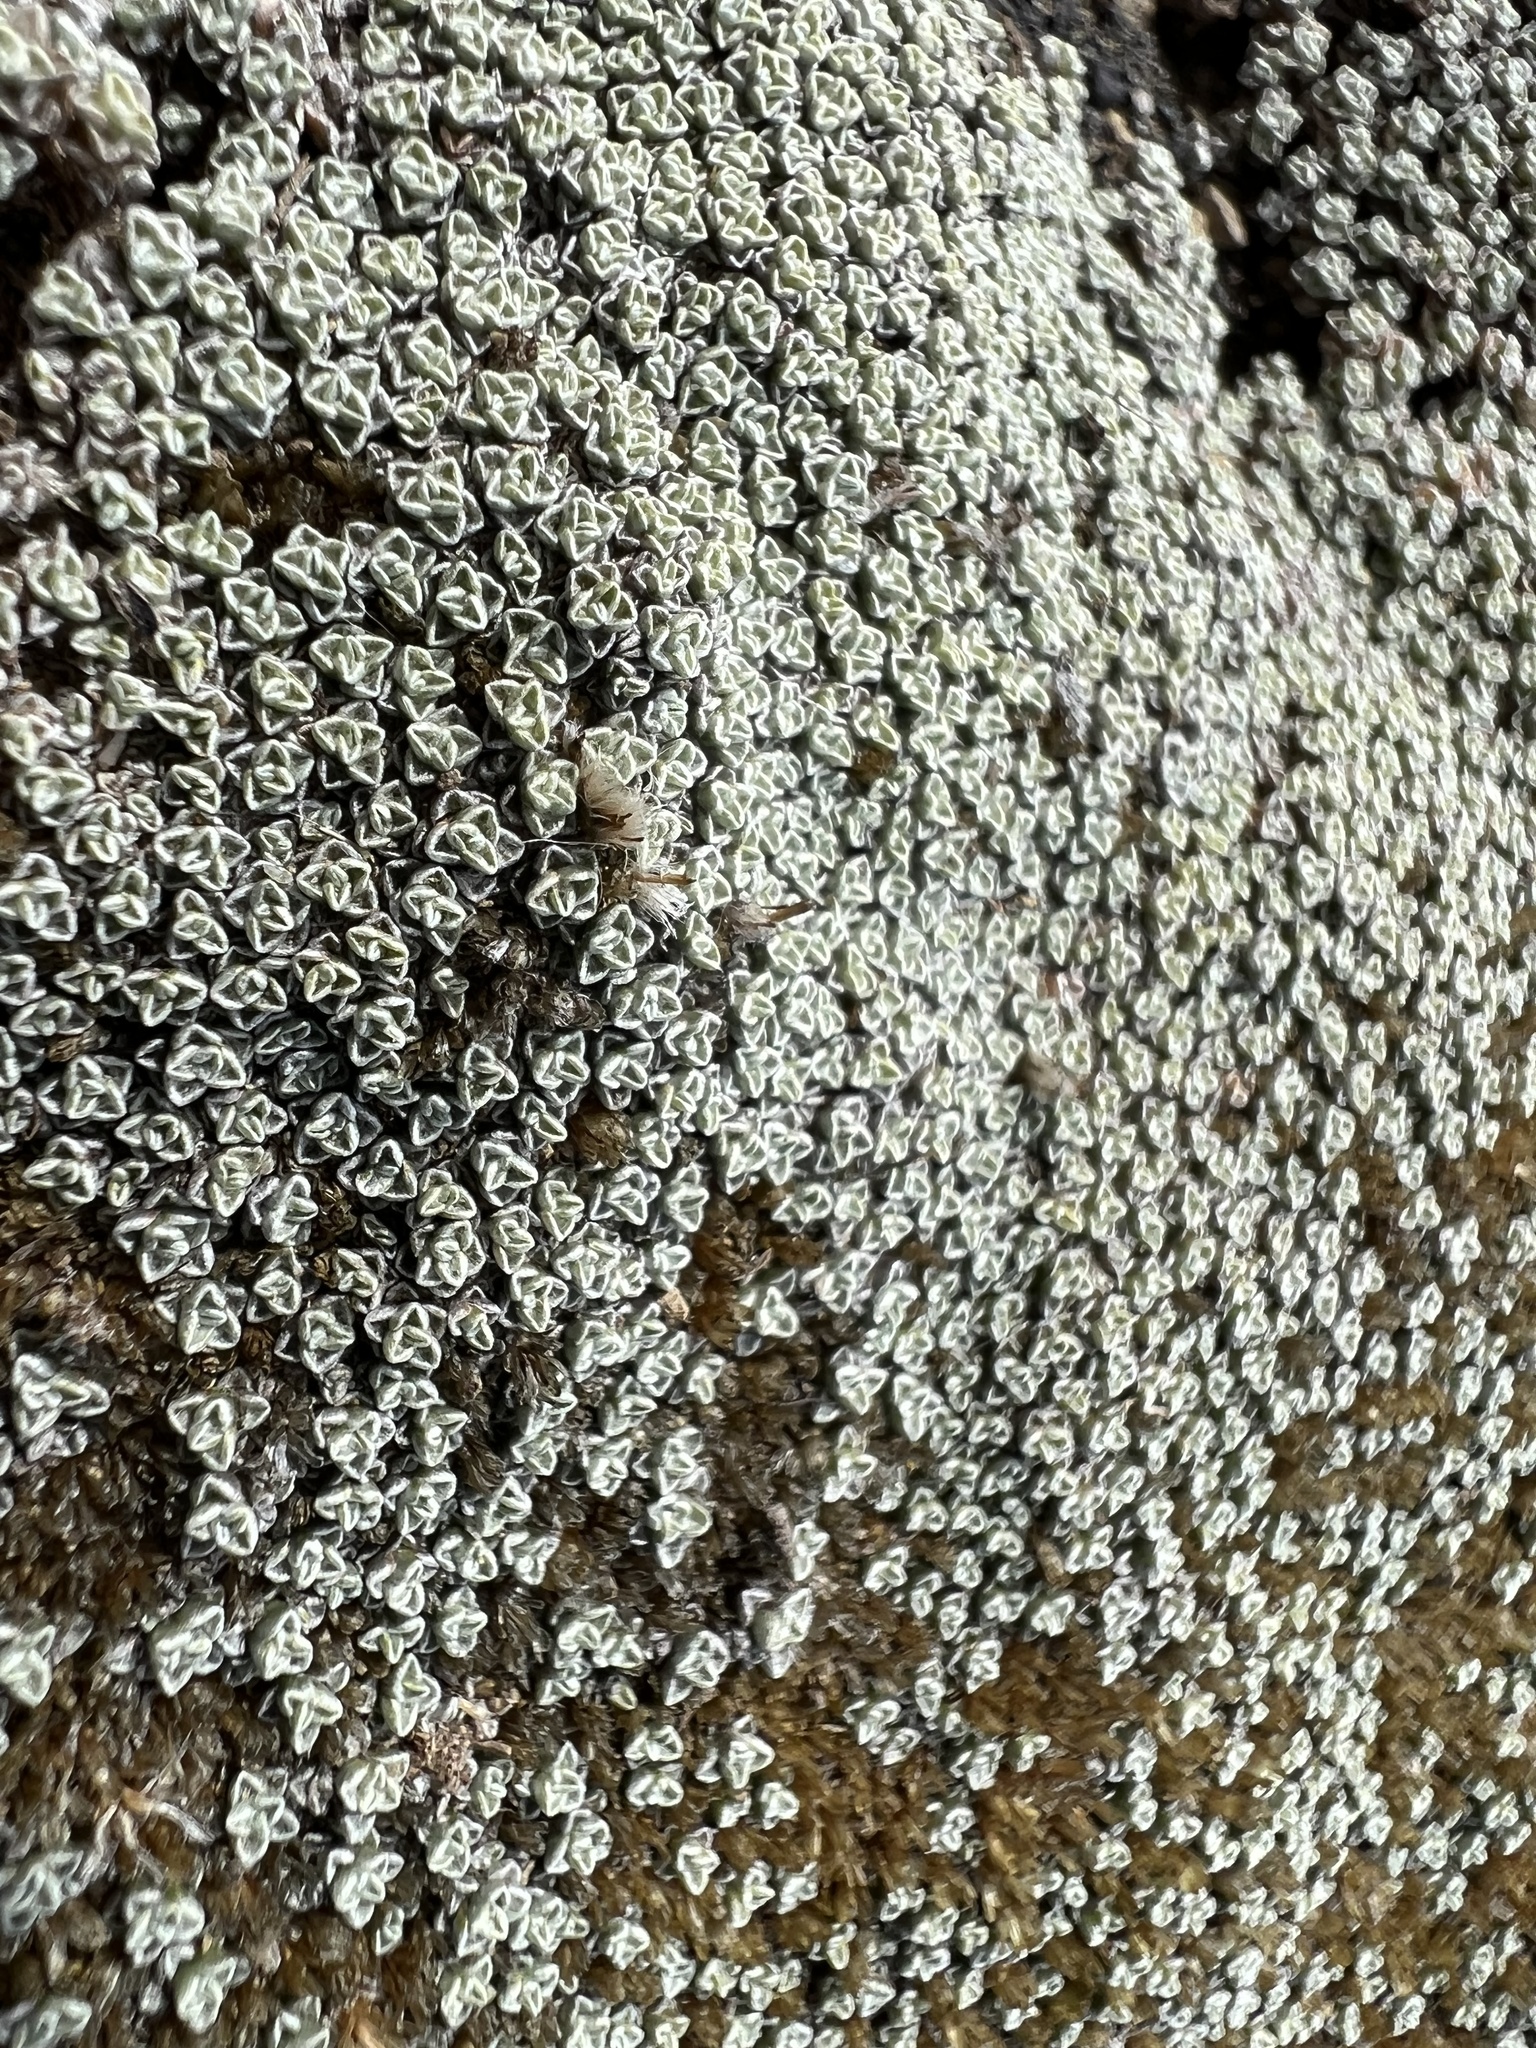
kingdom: Plantae
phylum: Tracheophyta
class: Magnoliopsida
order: Asterales
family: Asteraceae
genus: Raoulia
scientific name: Raoulia australis
